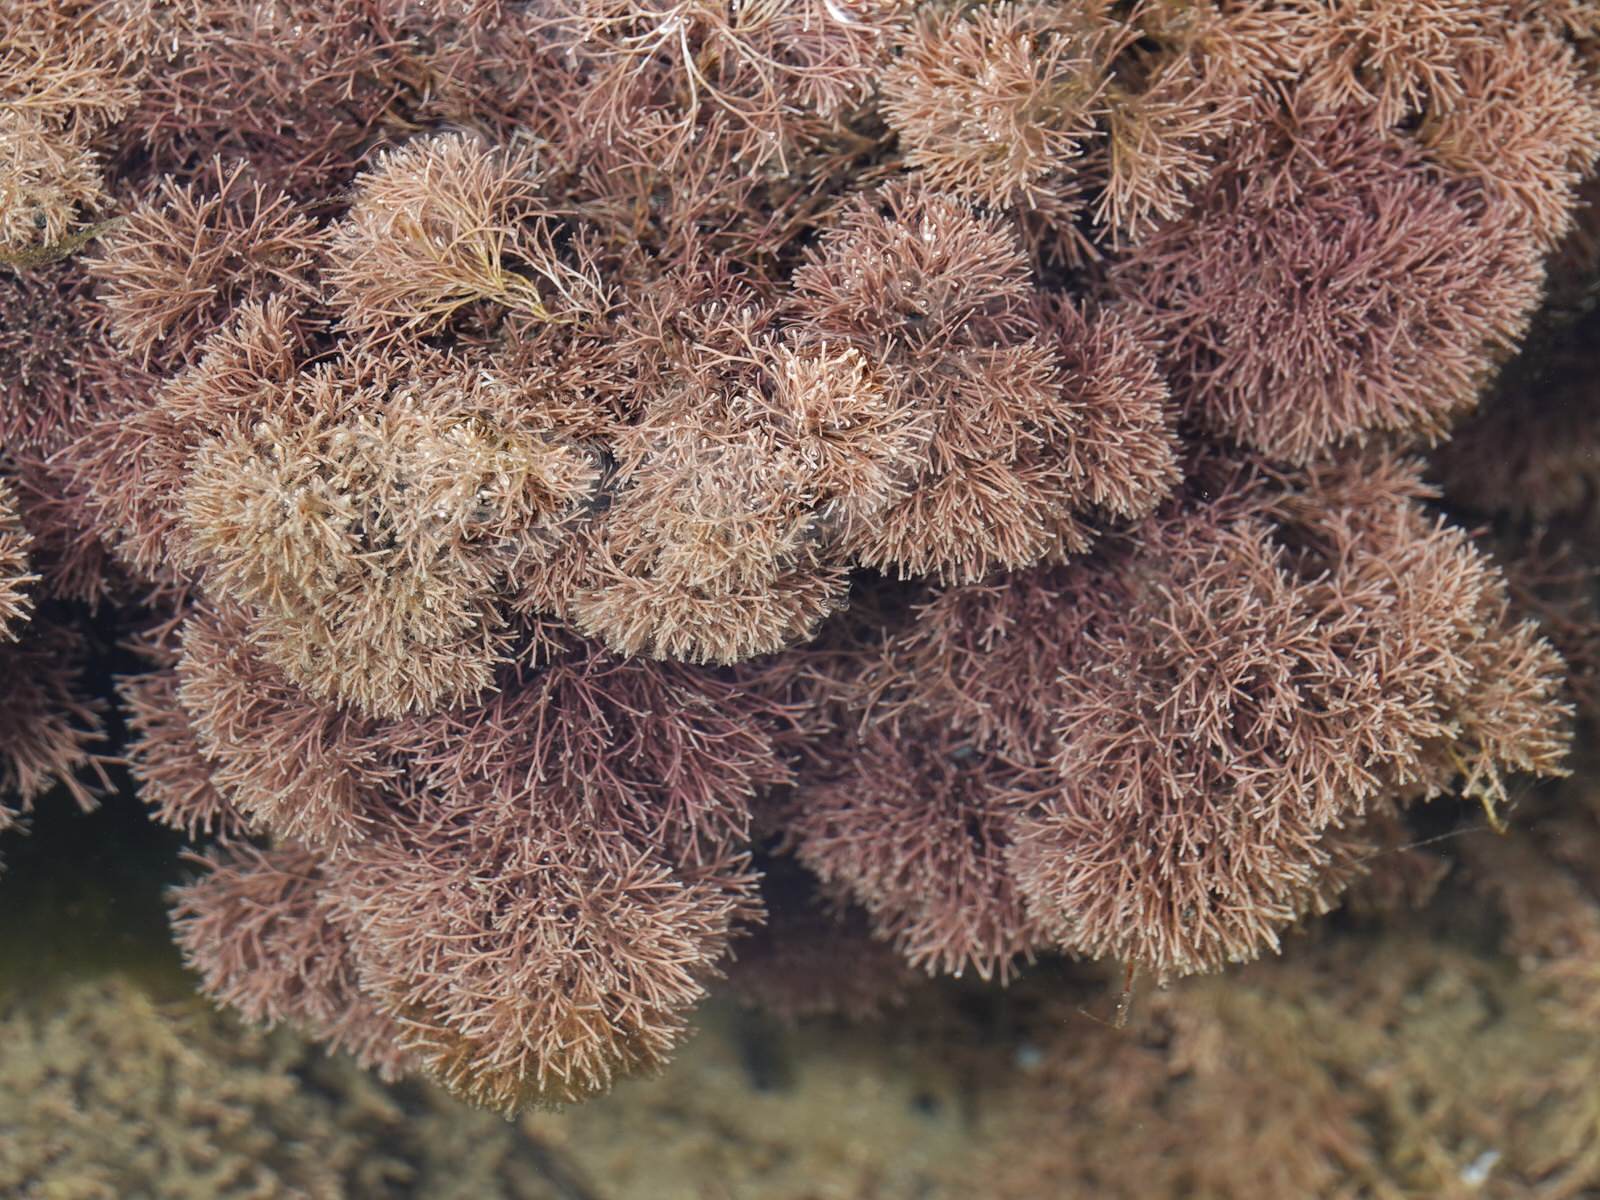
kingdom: Plantae
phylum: Rhodophyta
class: Florideophyceae
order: Corallinales
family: Corallinaceae
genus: Jania
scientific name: Jania
